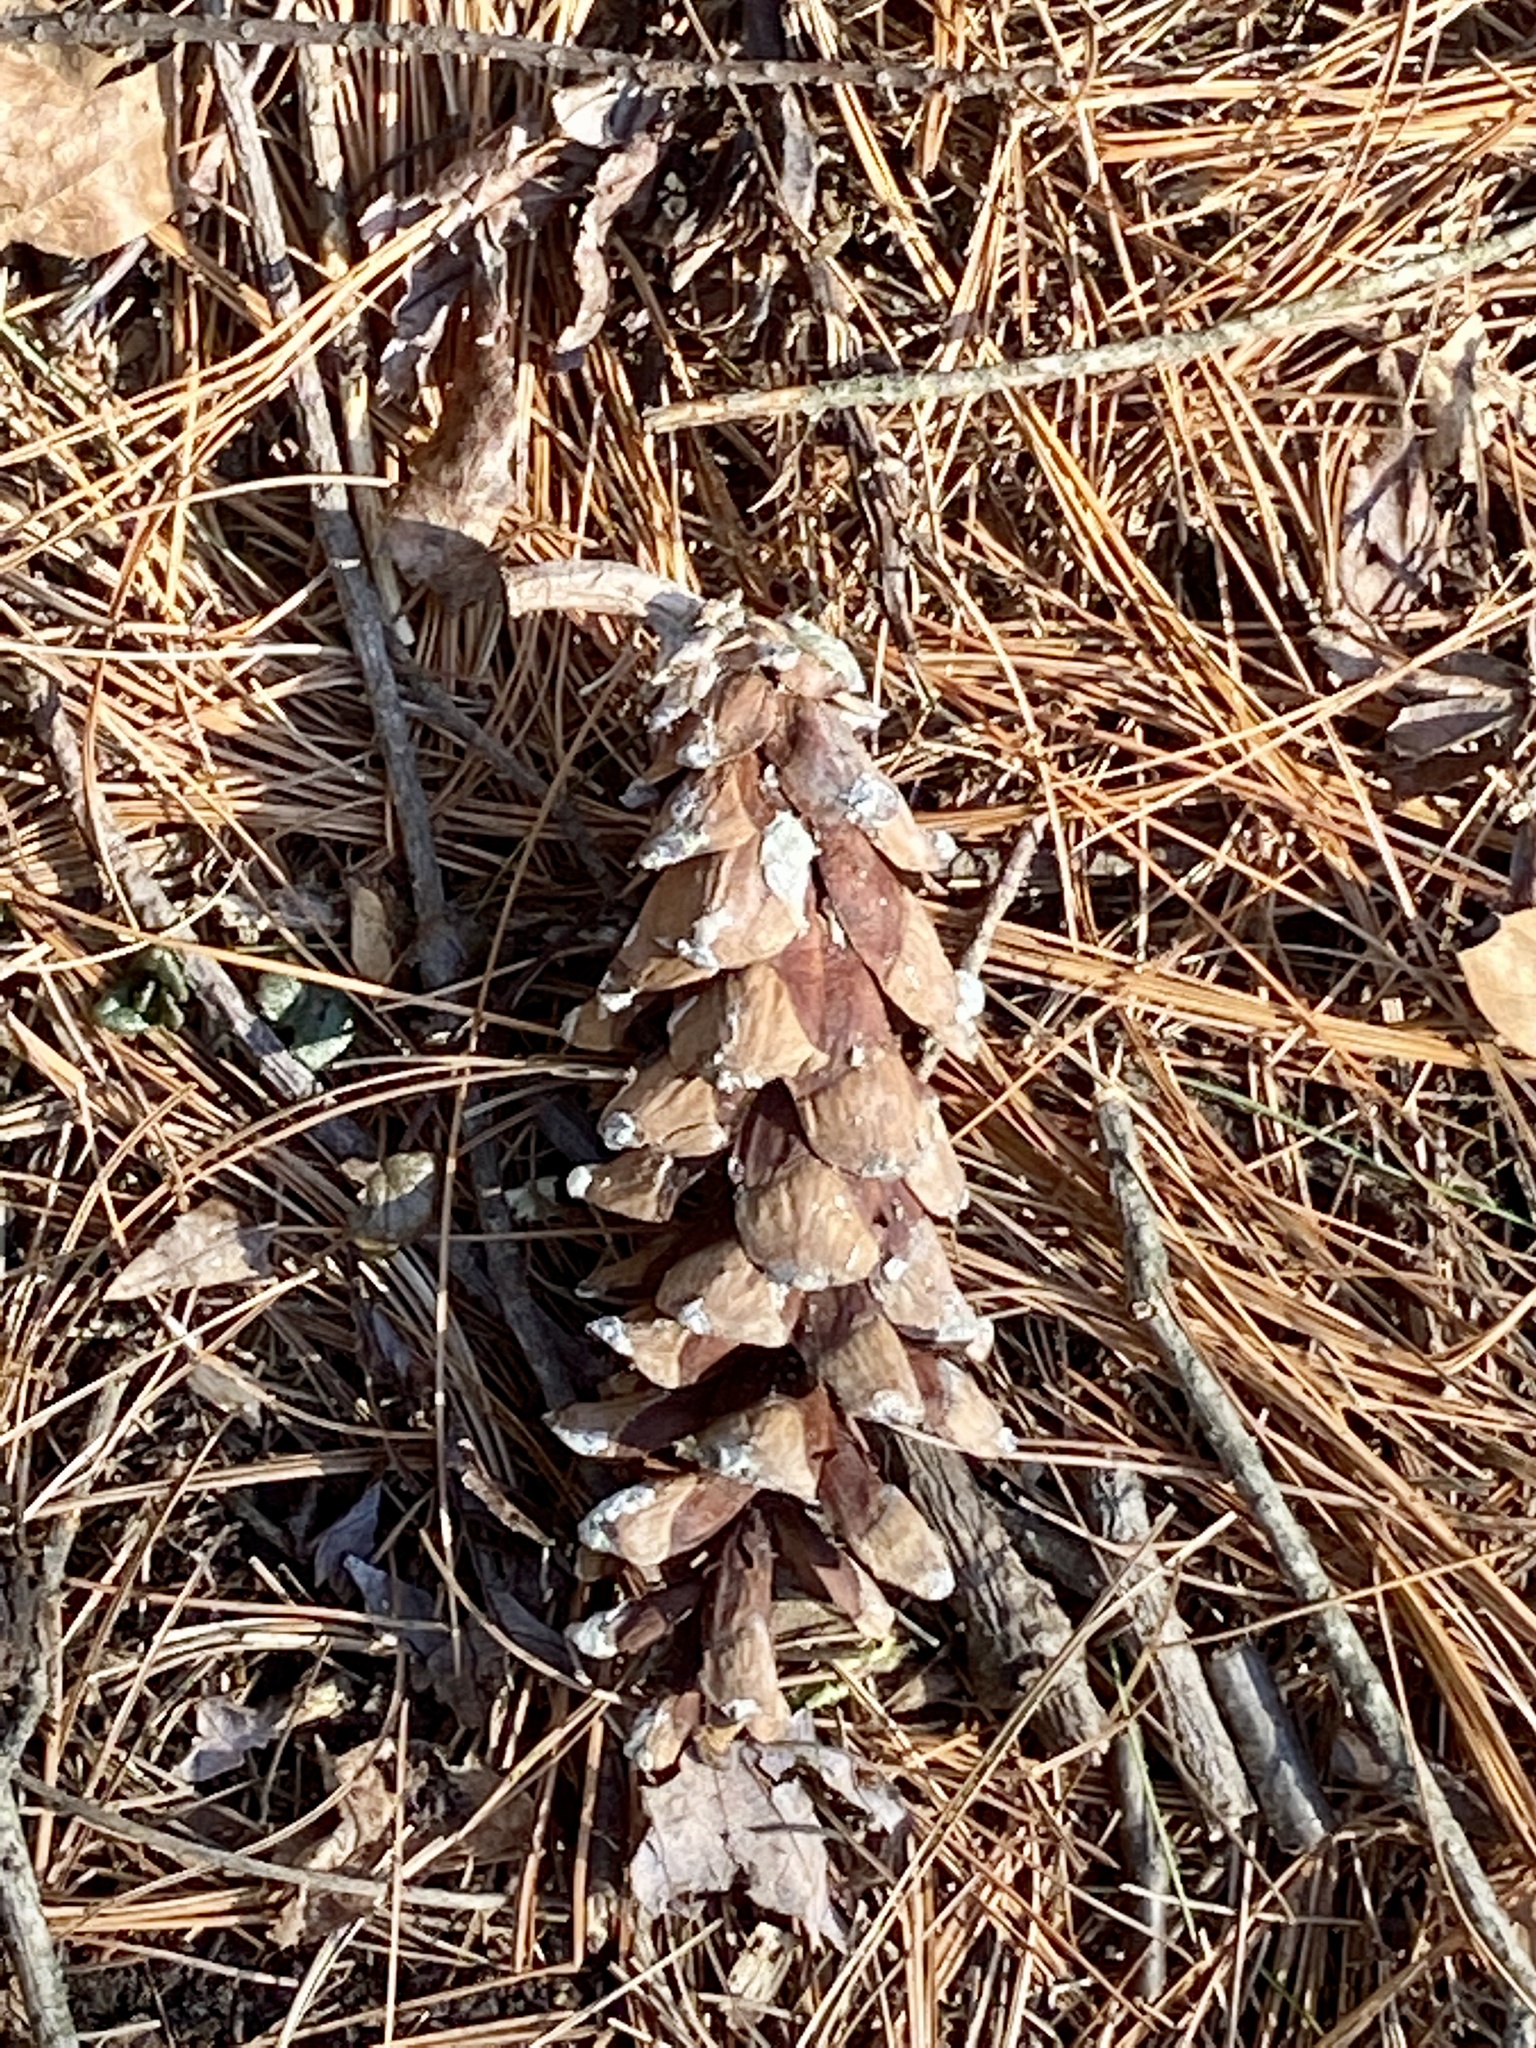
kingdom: Plantae
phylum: Tracheophyta
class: Pinopsida
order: Pinales
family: Pinaceae
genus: Pinus
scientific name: Pinus strobus
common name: Weymouth pine
